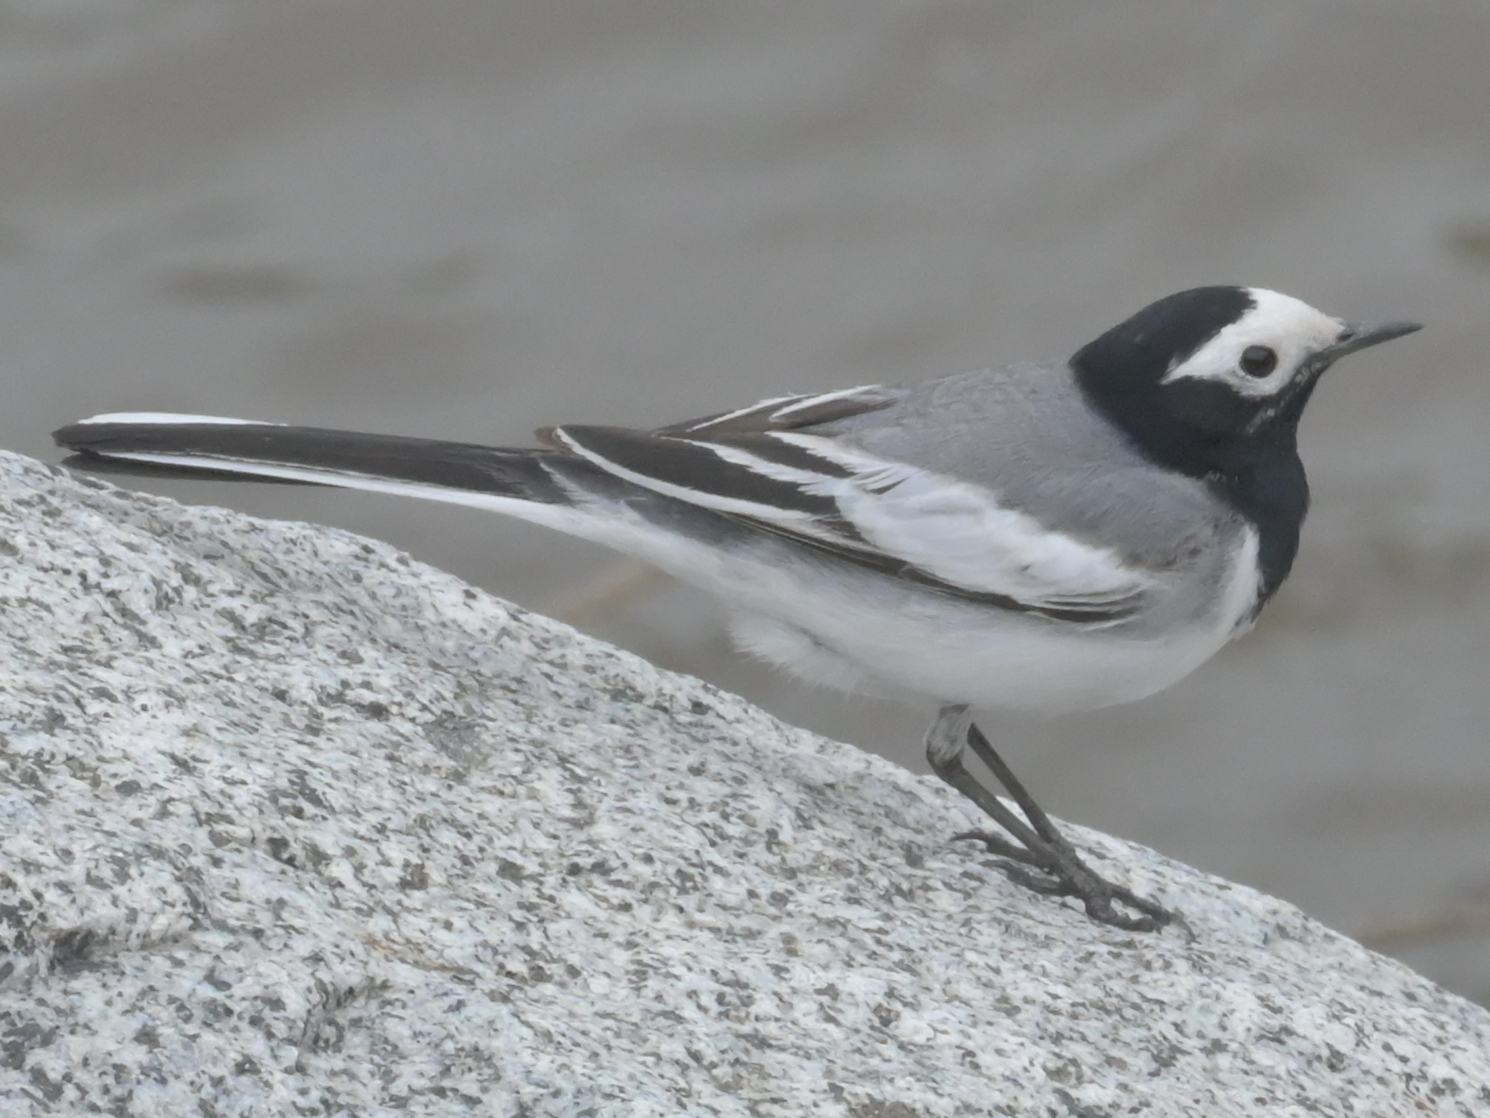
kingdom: Animalia
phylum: Chordata
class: Aves
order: Passeriformes
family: Motacillidae
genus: Motacilla
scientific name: Motacilla alba
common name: White wagtail
